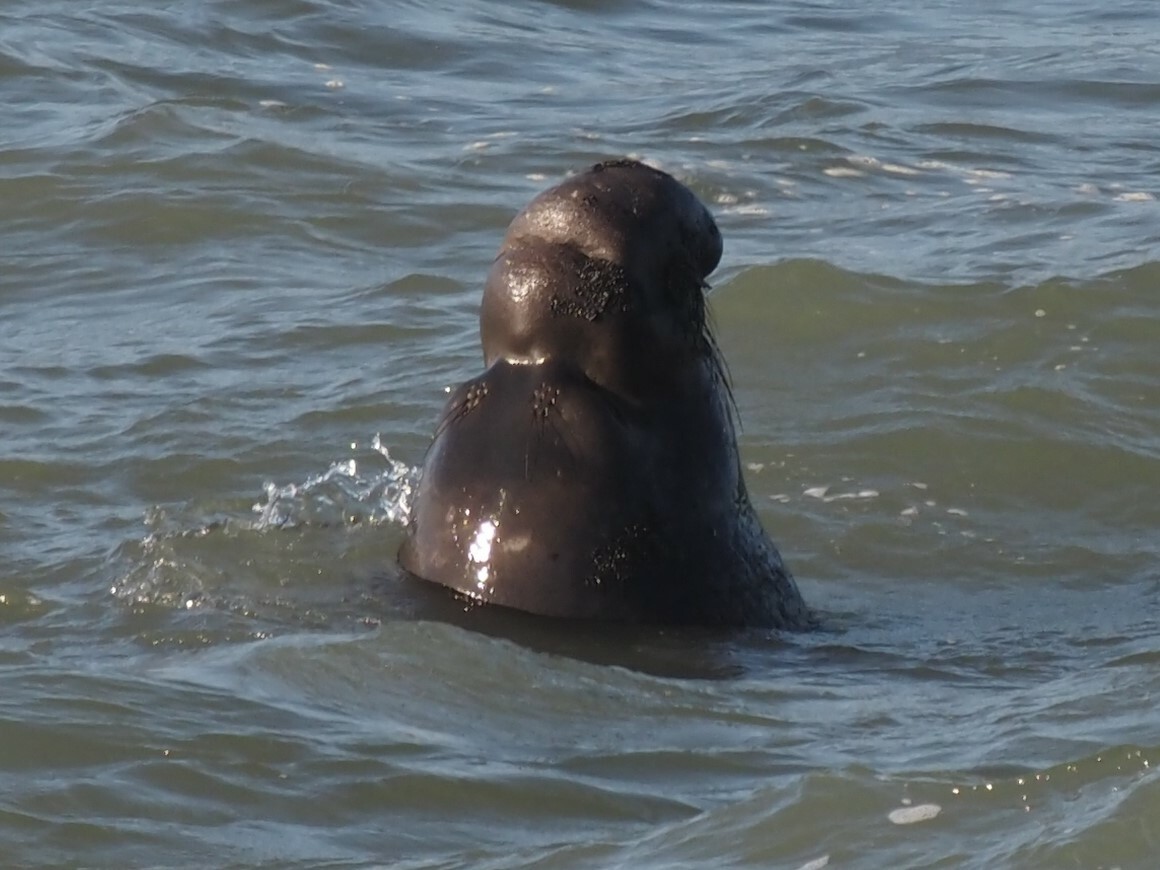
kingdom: Animalia
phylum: Chordata
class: Mammalia
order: Carnivora
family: Phocidae
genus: Mirounga
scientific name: Mirounga angustirostris
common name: Northern elephant seal
